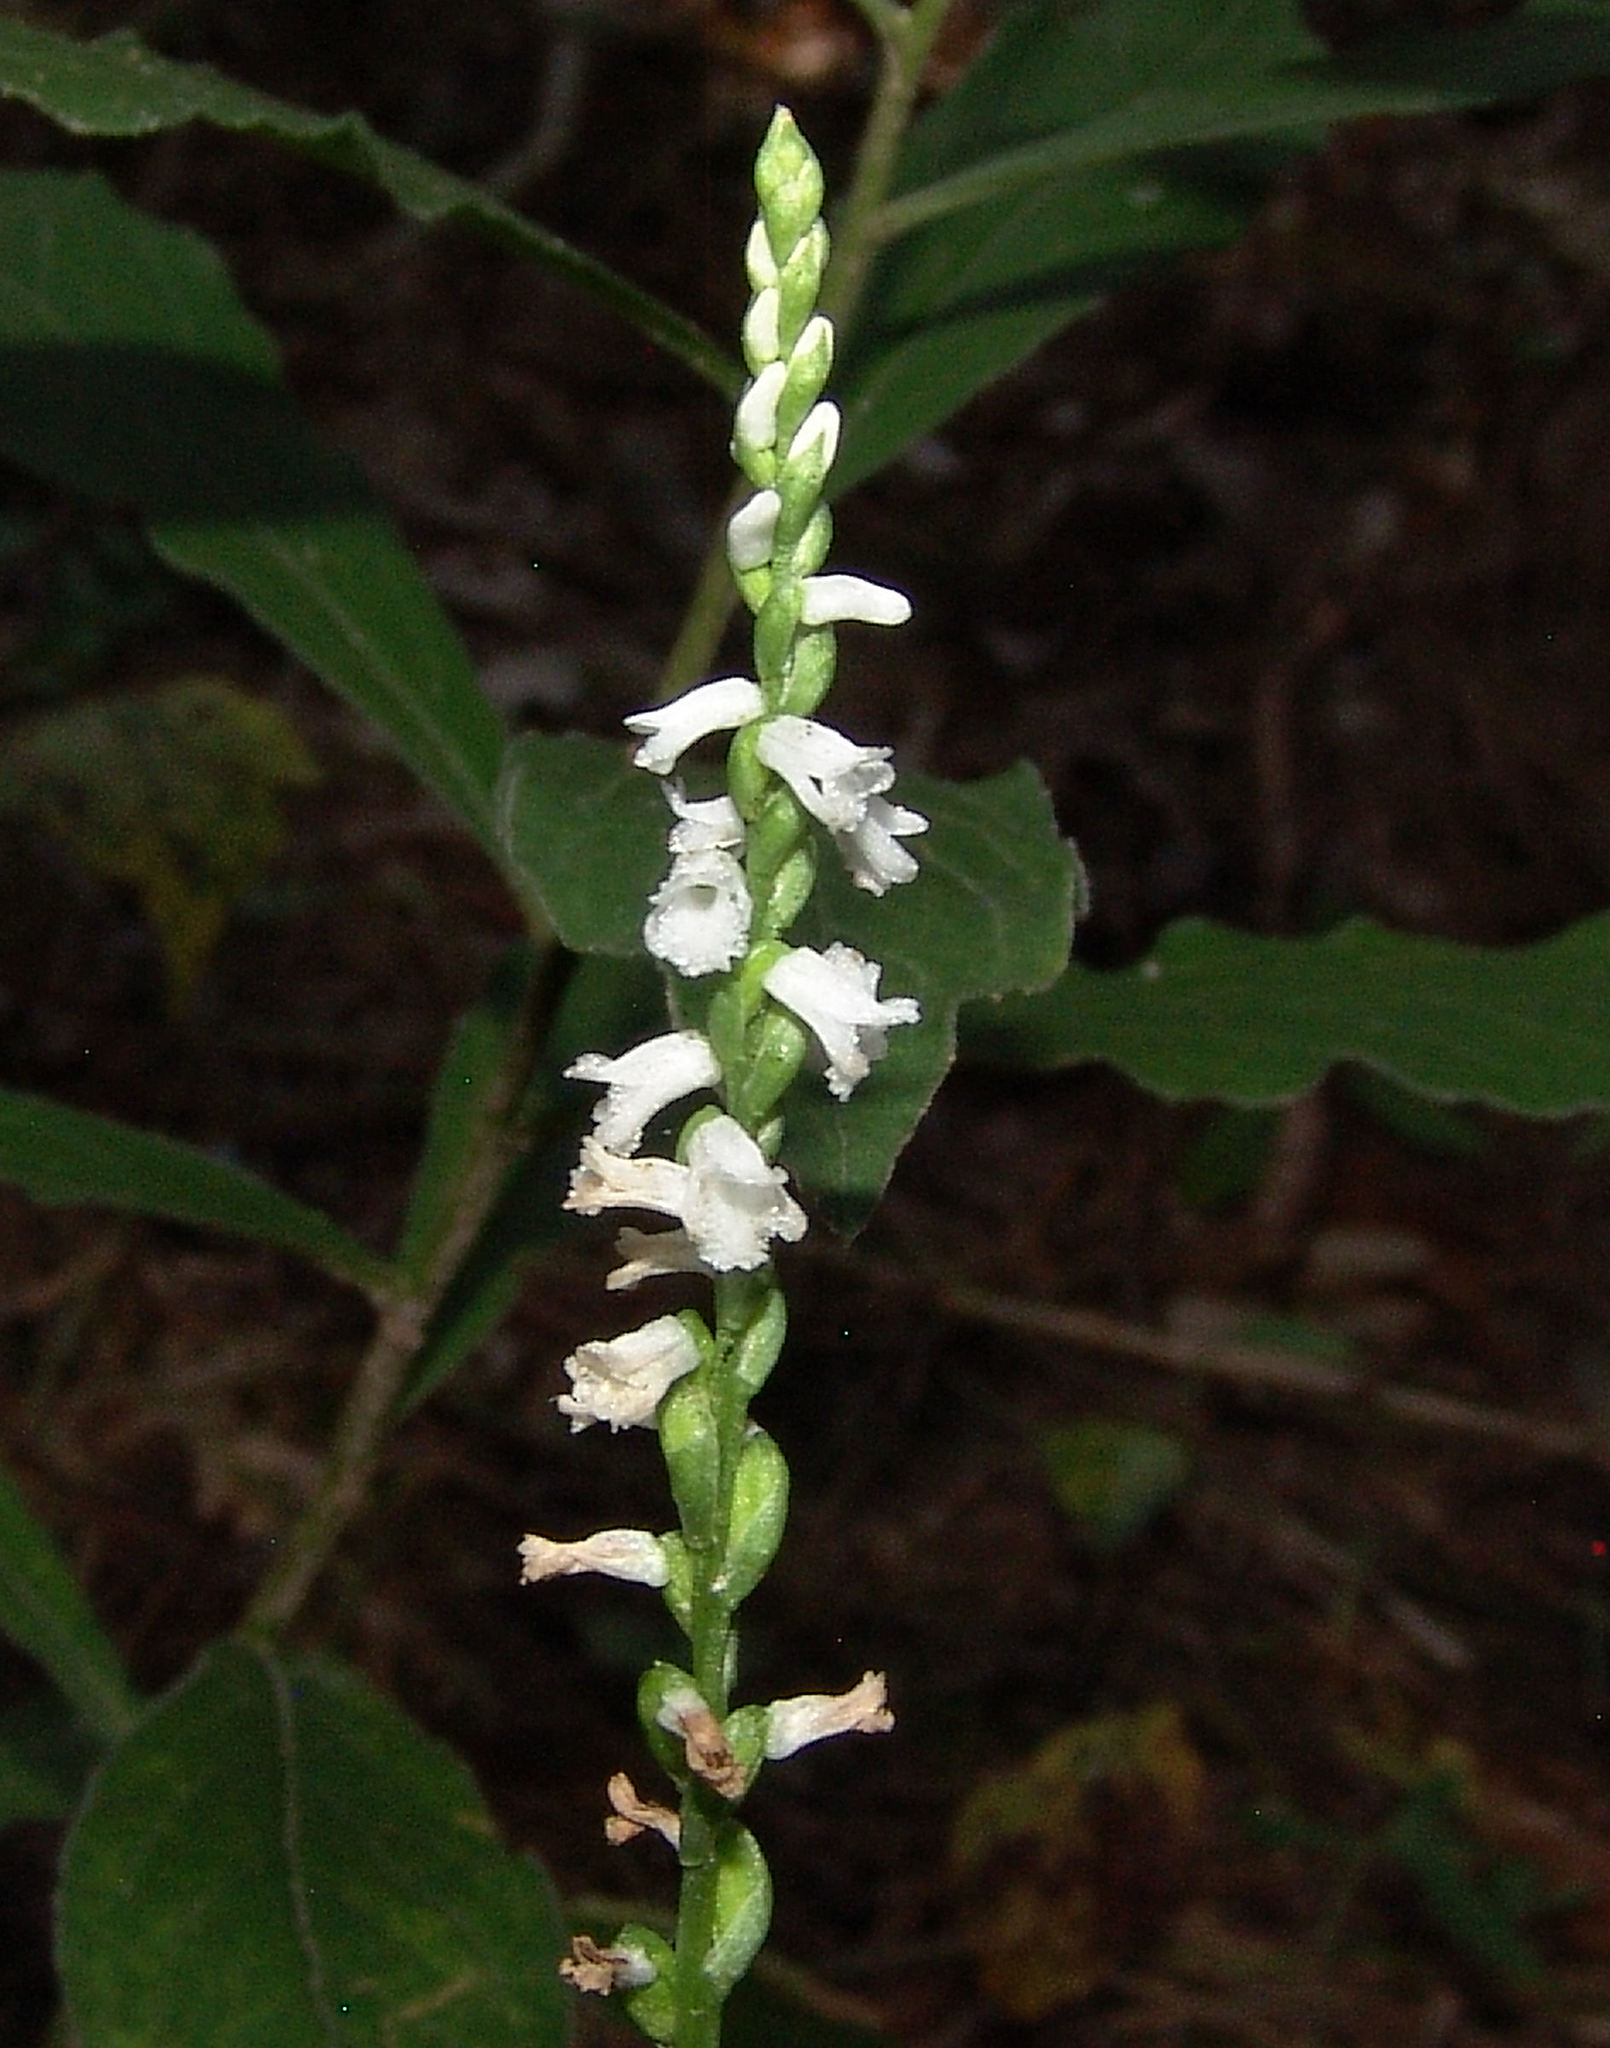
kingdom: Plantae
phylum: Tracheophyta
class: Liliopsida
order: Asparagales
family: Orchidaceae
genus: Spiranthes
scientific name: Spiranthes tuberosa
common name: Little ladies'-tresses
